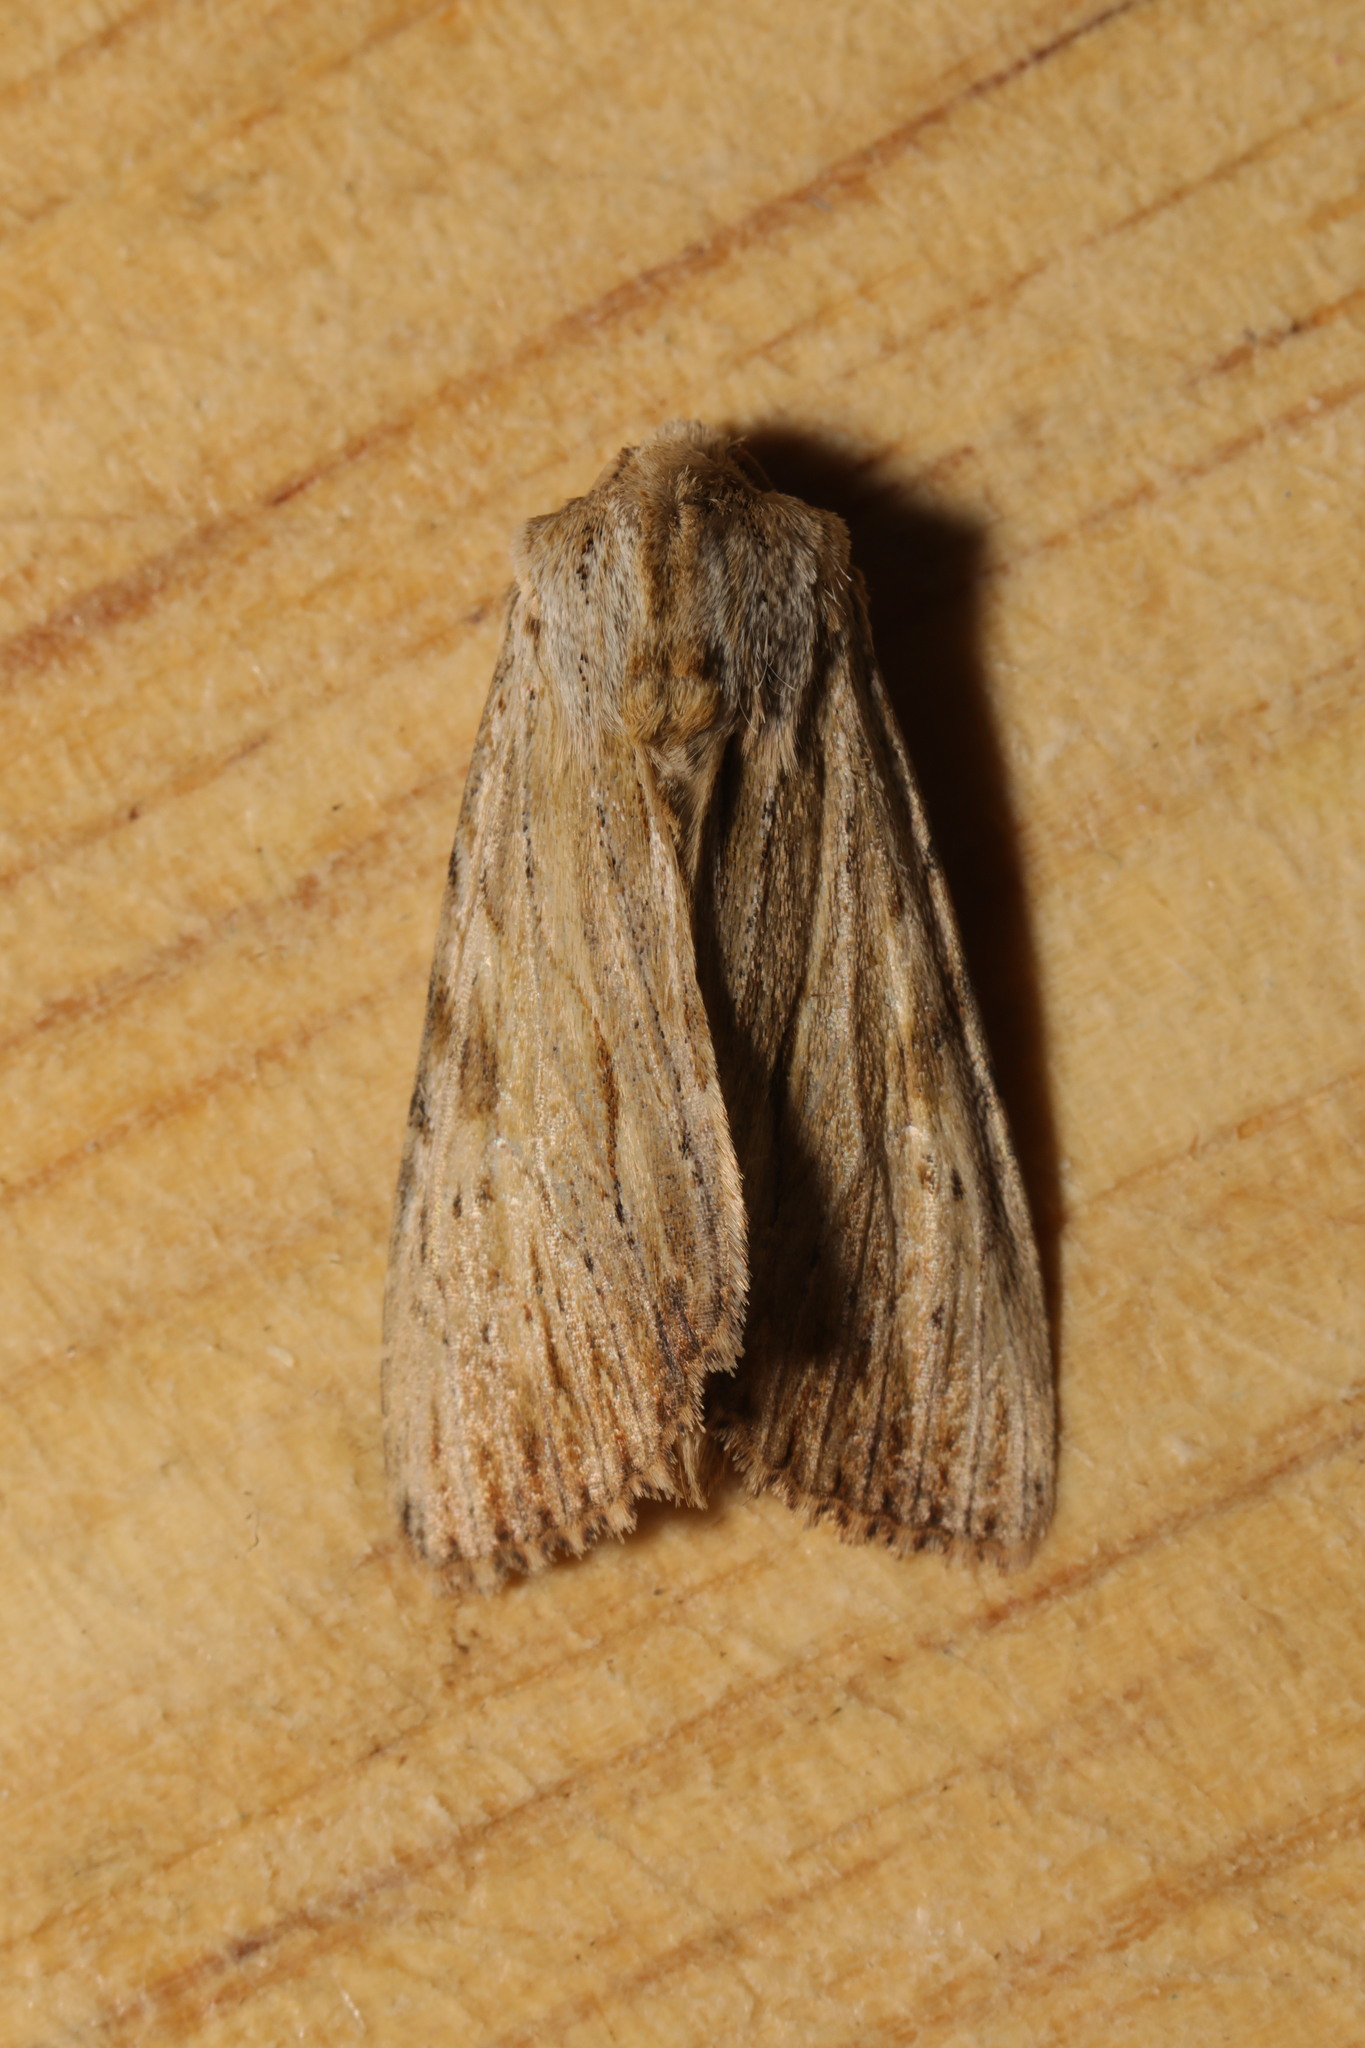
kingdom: Animalia
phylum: Arthropoda
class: Insecta
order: Lepidoptera
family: Noctuidae
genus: Apamea
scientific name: Apamea lithoxylaea
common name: Light arches
